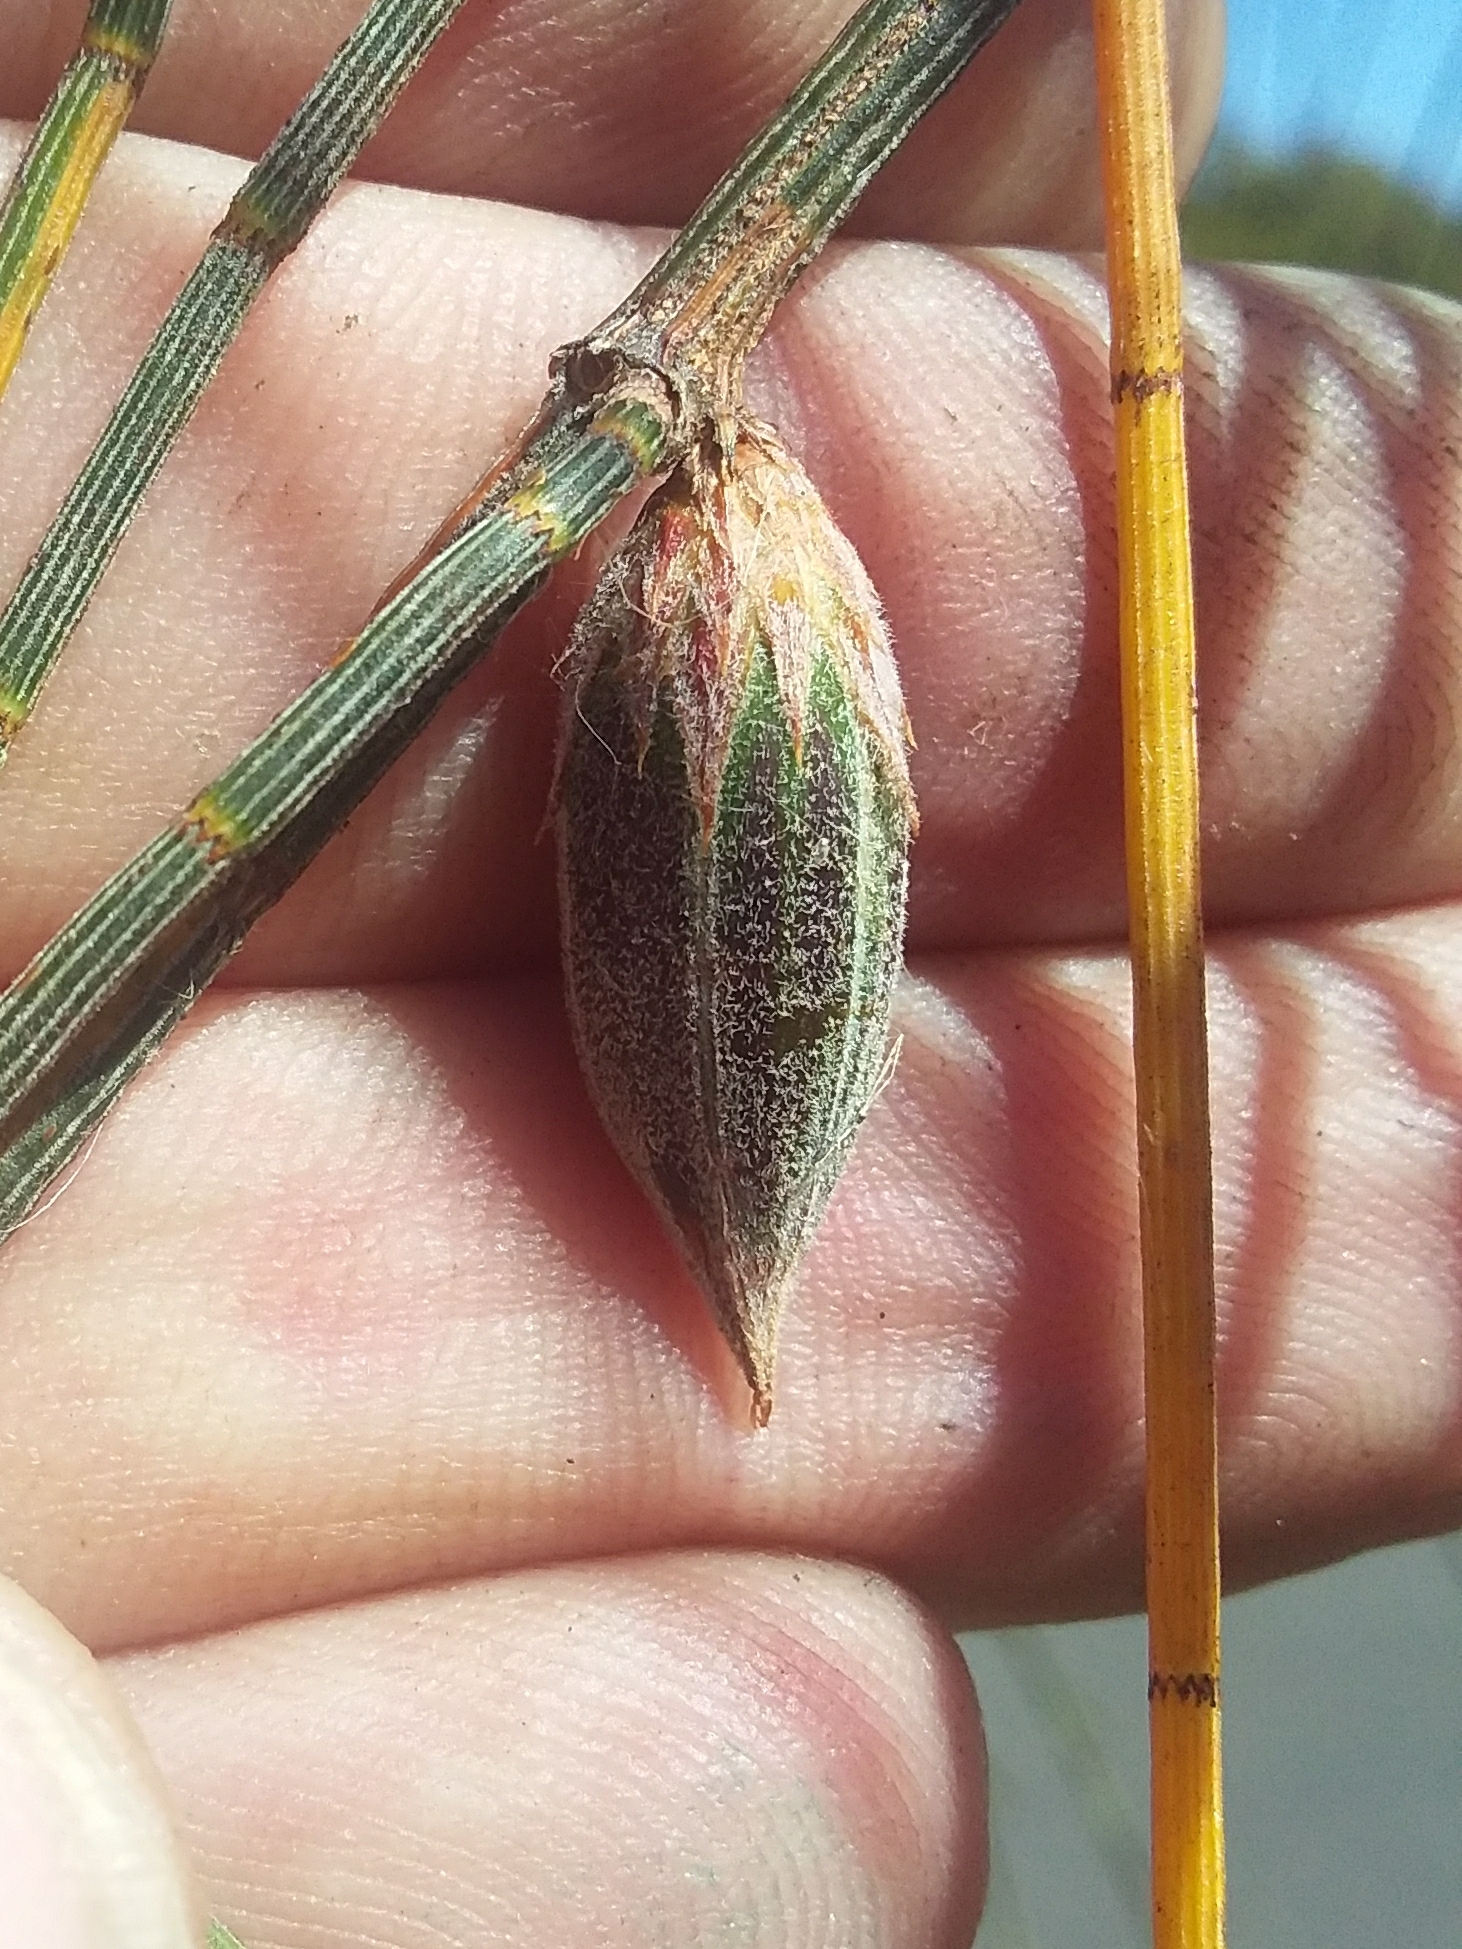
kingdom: Animalia
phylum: Arthropoda
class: Insecta
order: Hemiptera
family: Eriococcidae
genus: Cylindrococcus
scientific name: Cylindrococcus casuarinae
